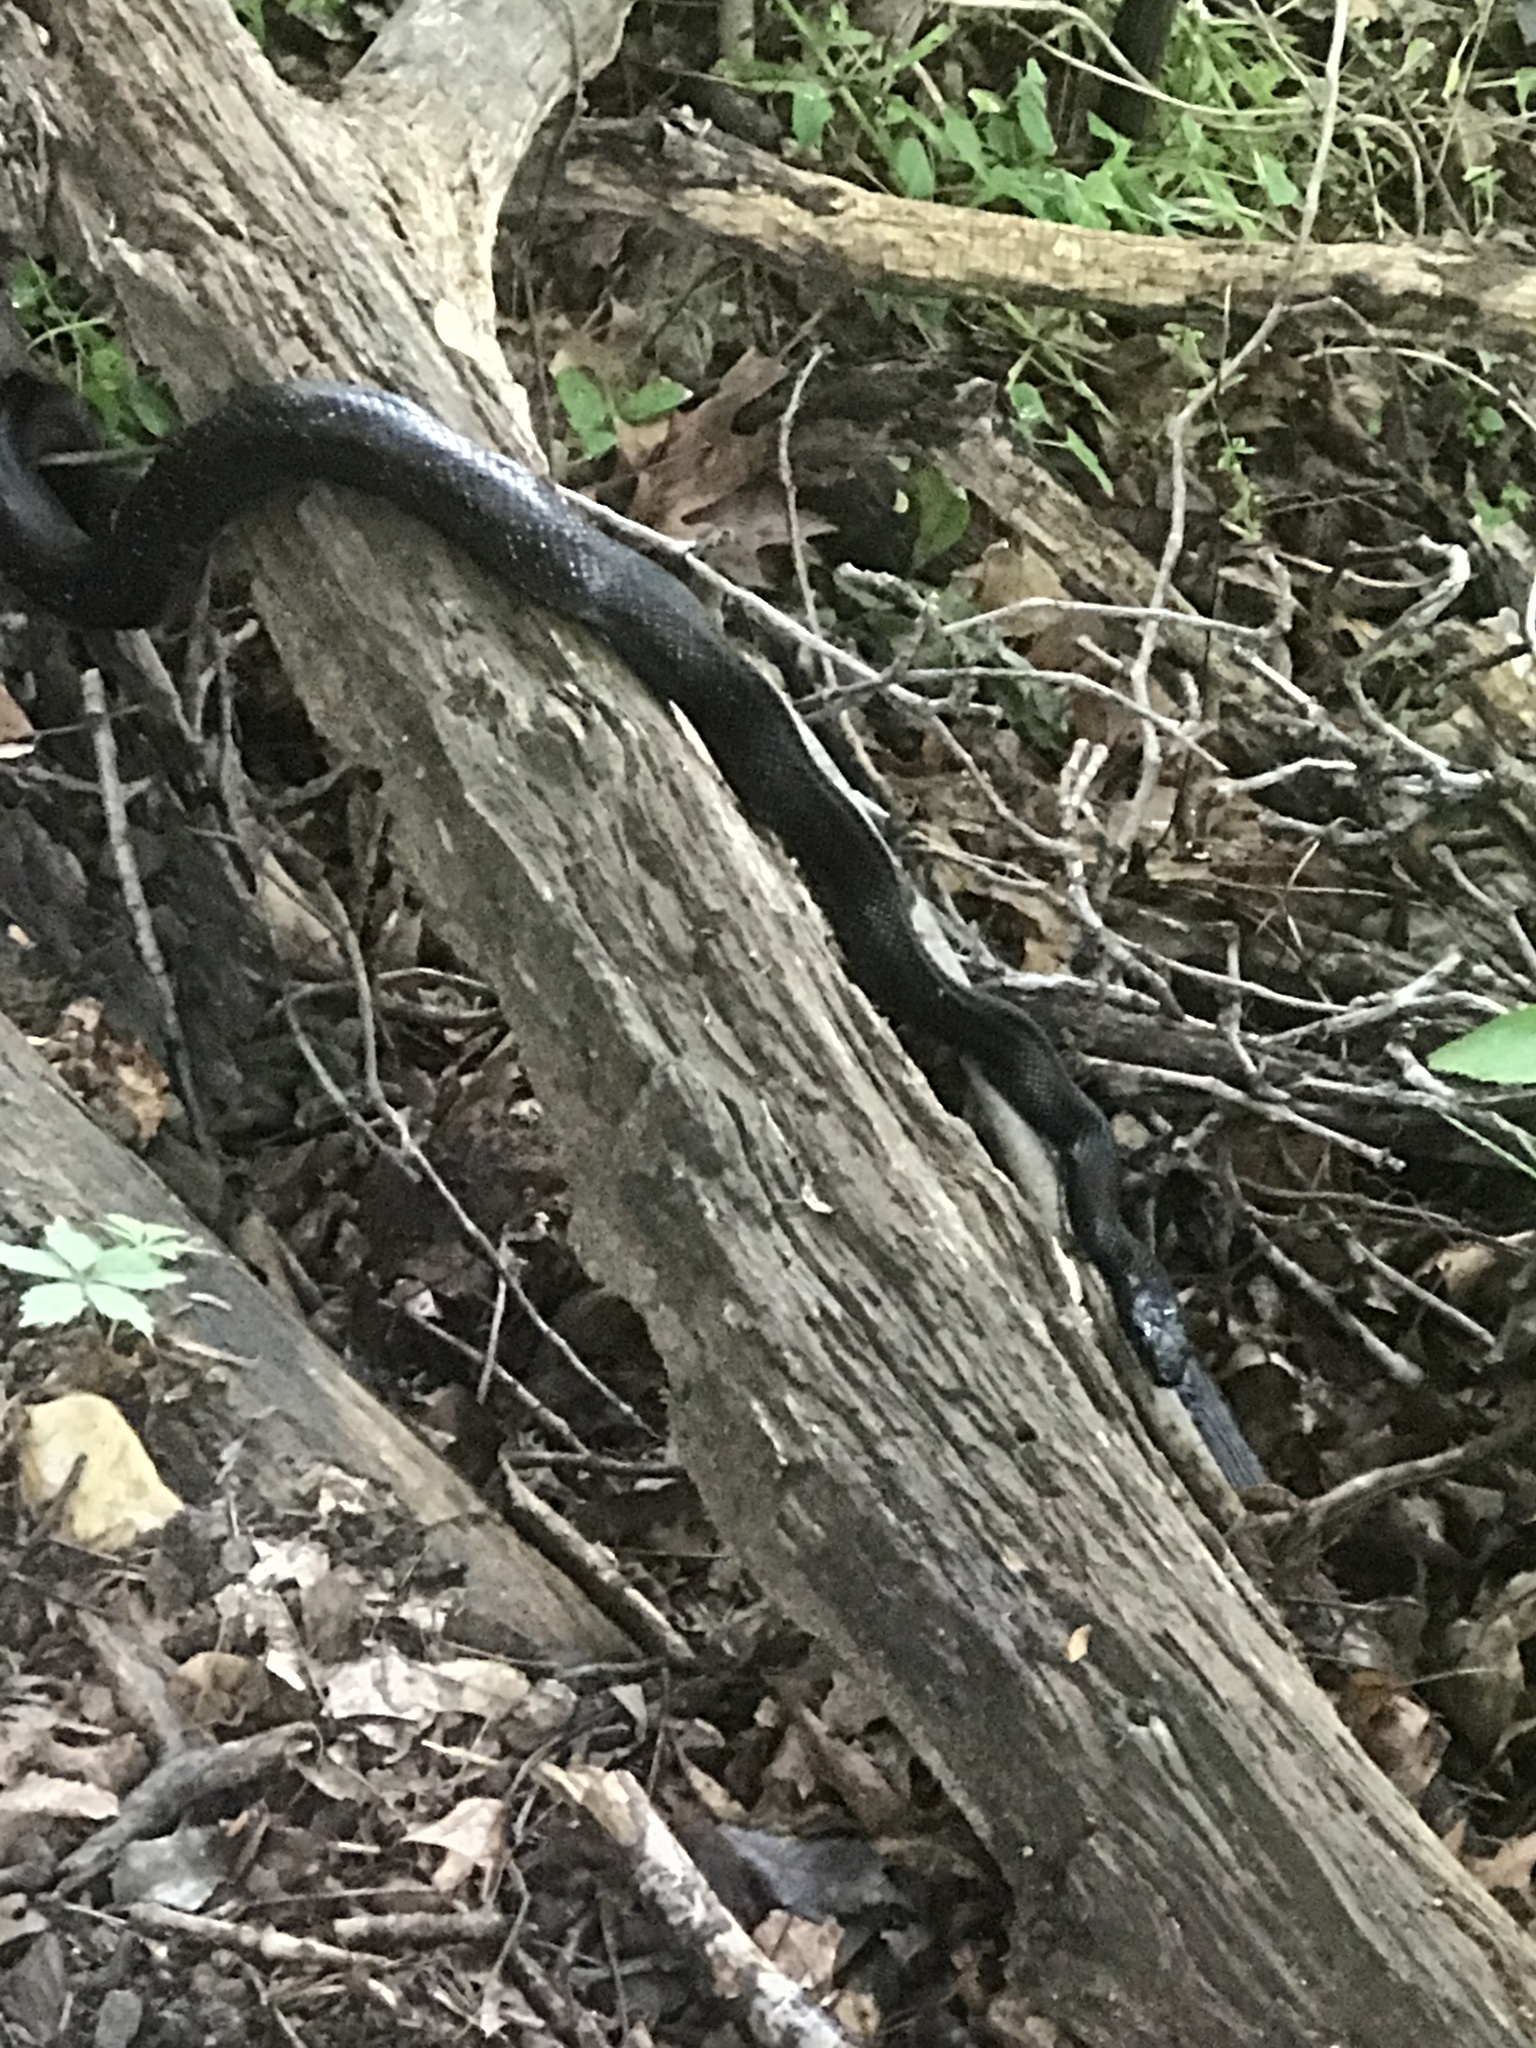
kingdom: Animalia
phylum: Chordata
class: Squamata
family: Colubridae
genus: Pantherophis
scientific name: Pantherophis alleghaniensis
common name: Eastern rat snake
